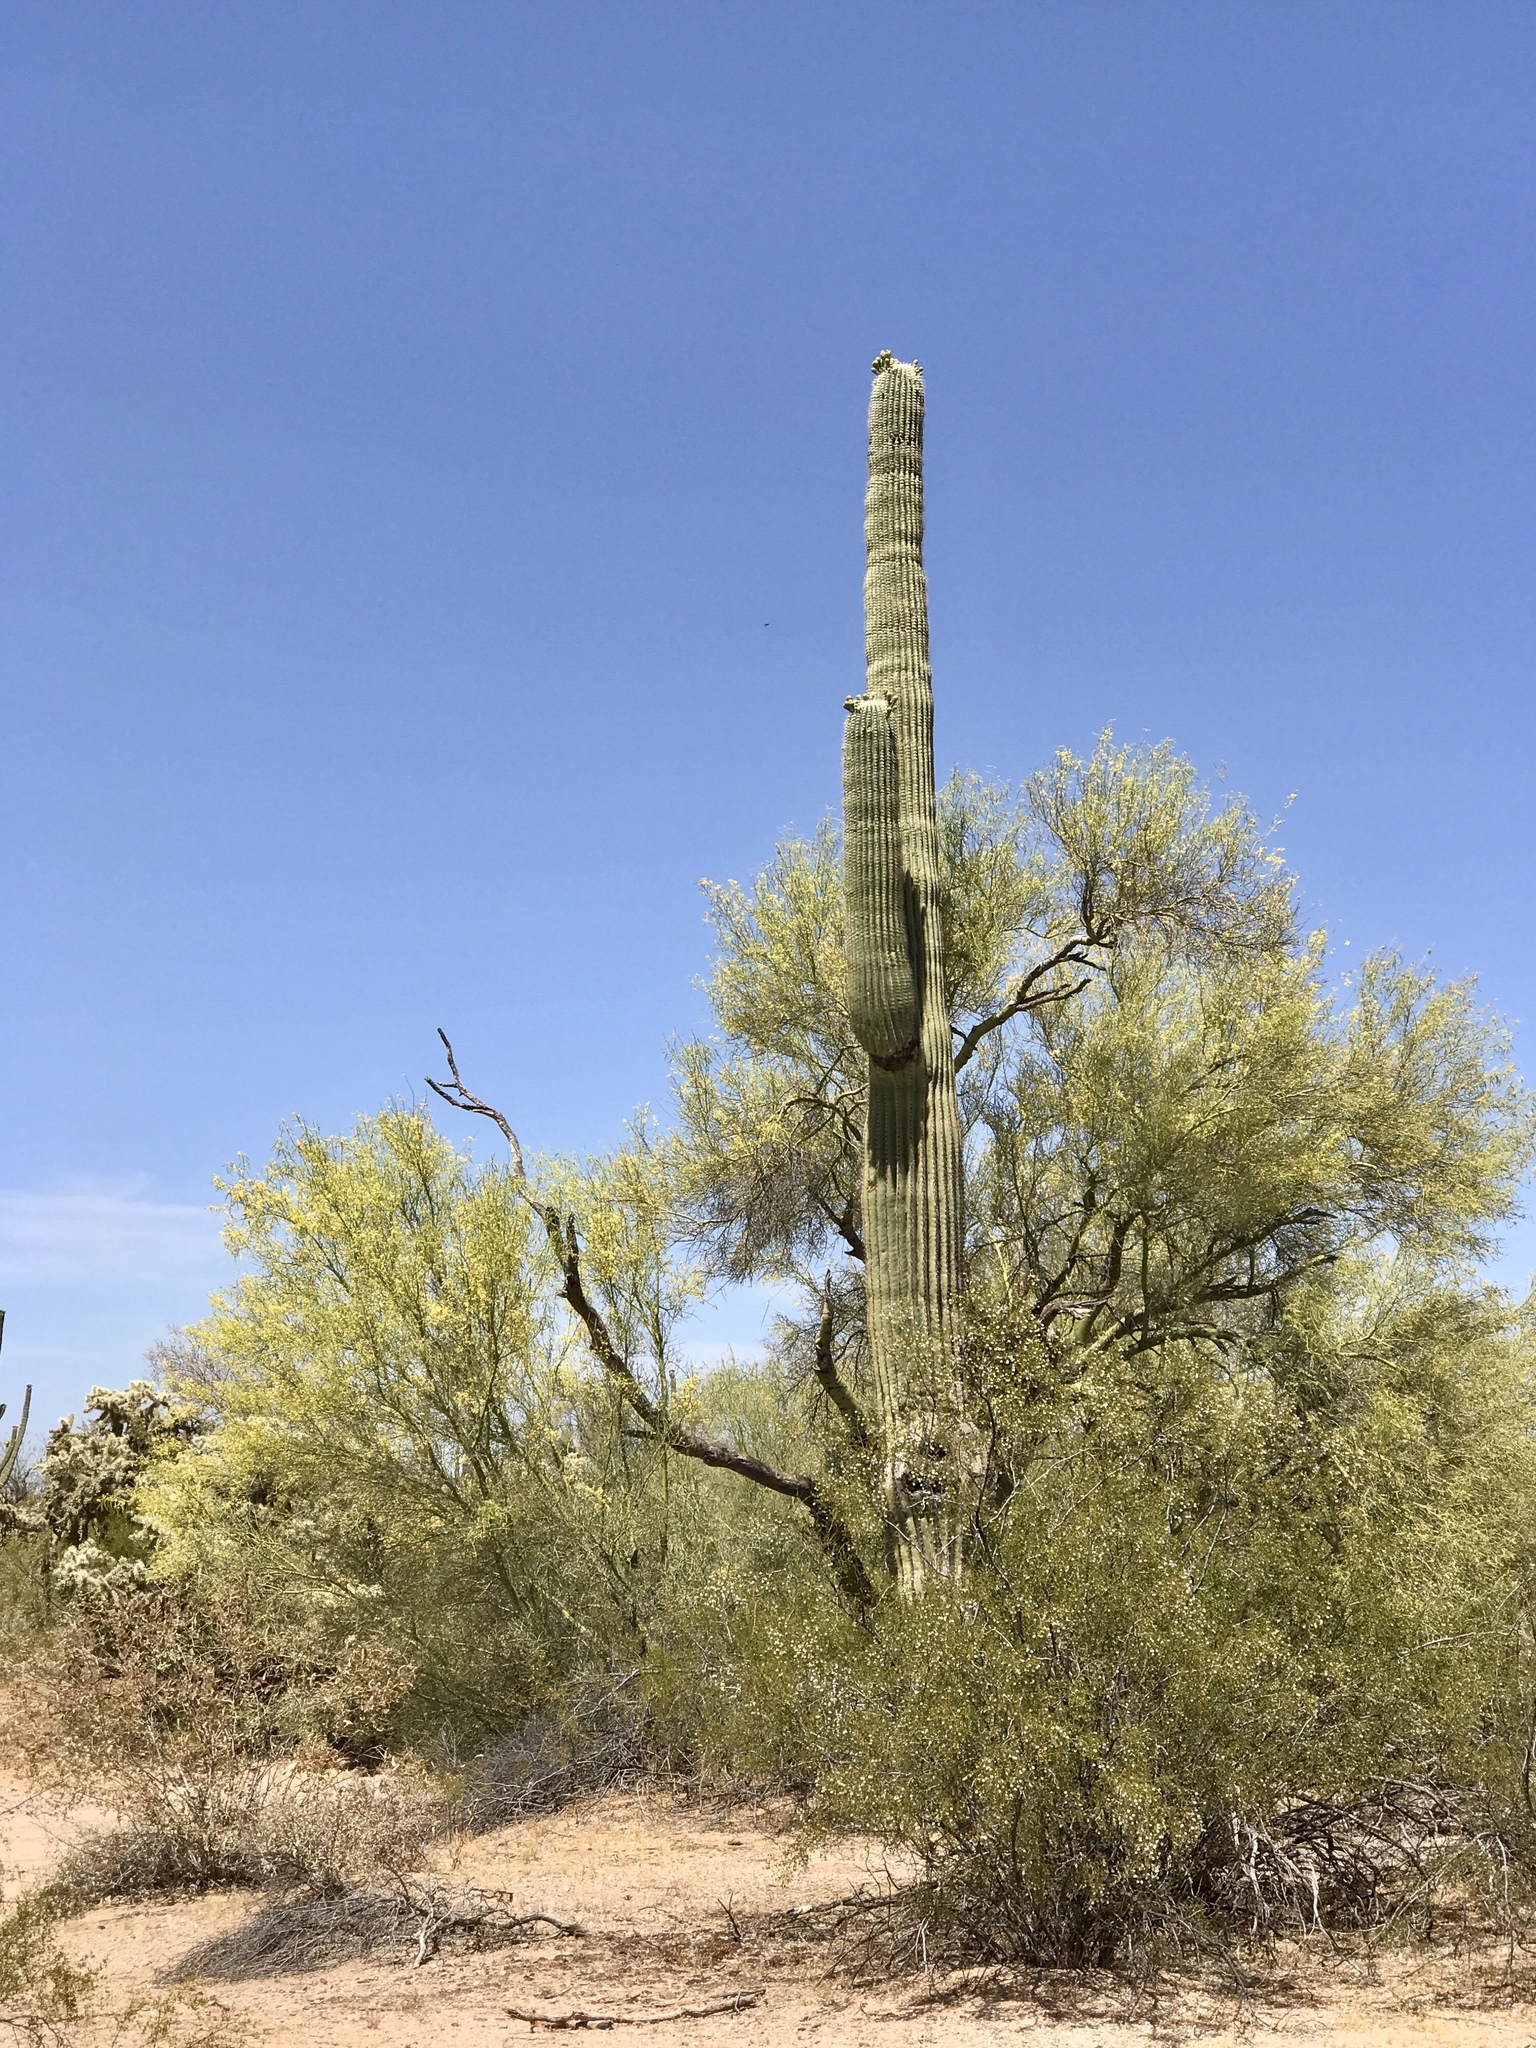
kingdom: Plantae
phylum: Tracheophyta
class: Magnoliopsida
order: Fabales
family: Fabaceae
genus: Parkinsonia
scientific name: Parkinsonia microphylla
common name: Yellow paloverde
